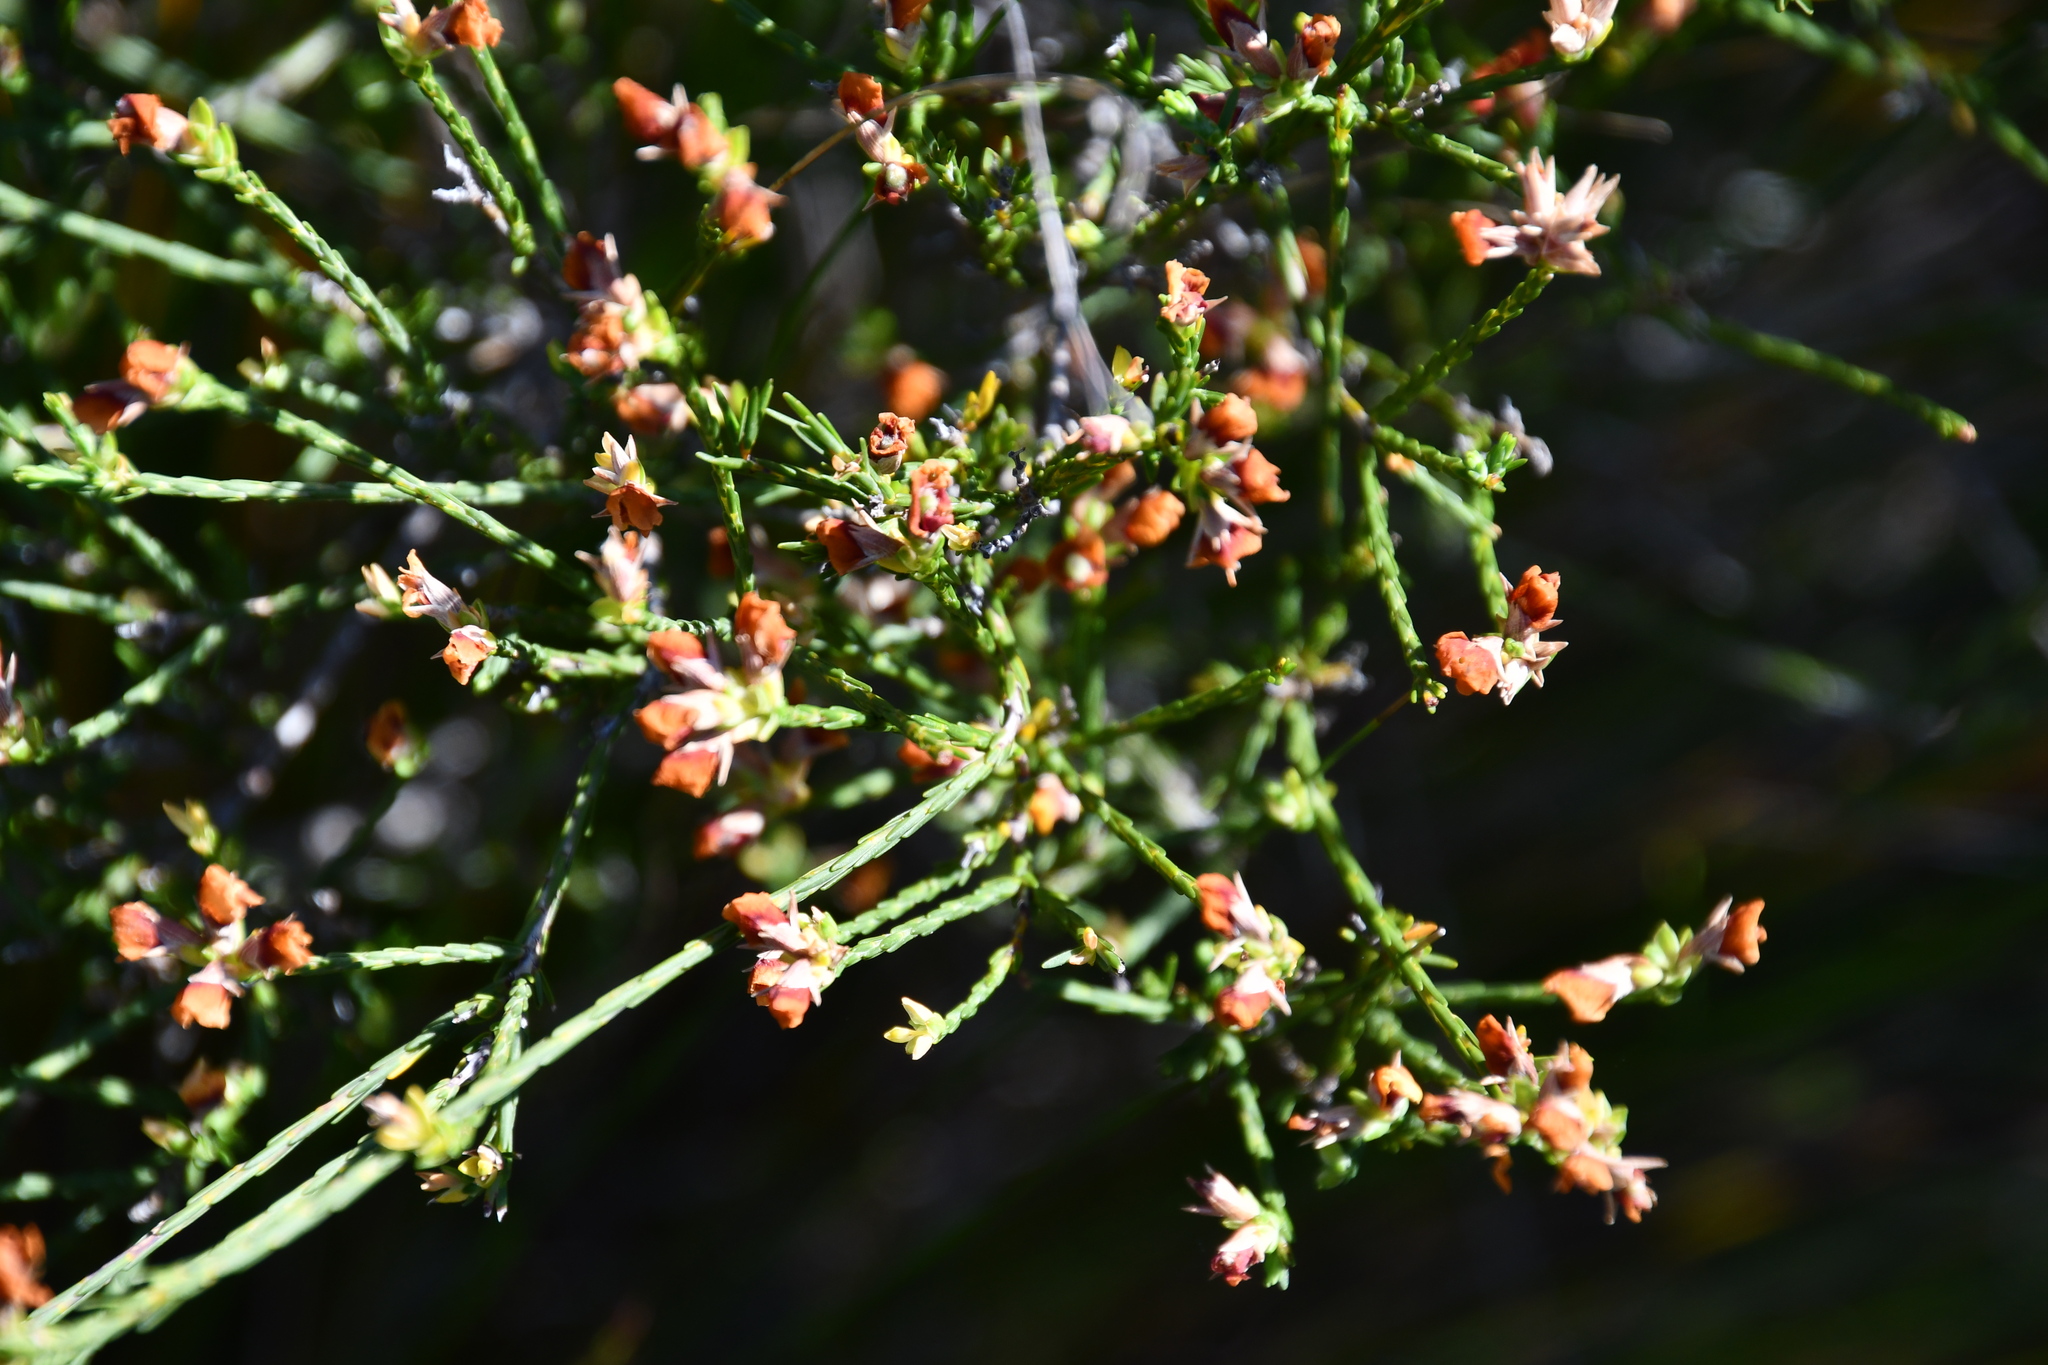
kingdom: Plantae
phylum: Tracheophyta
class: Magnoliopsida
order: Fabales
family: Fabaceae
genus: Eutaxia
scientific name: Eutaxia major
